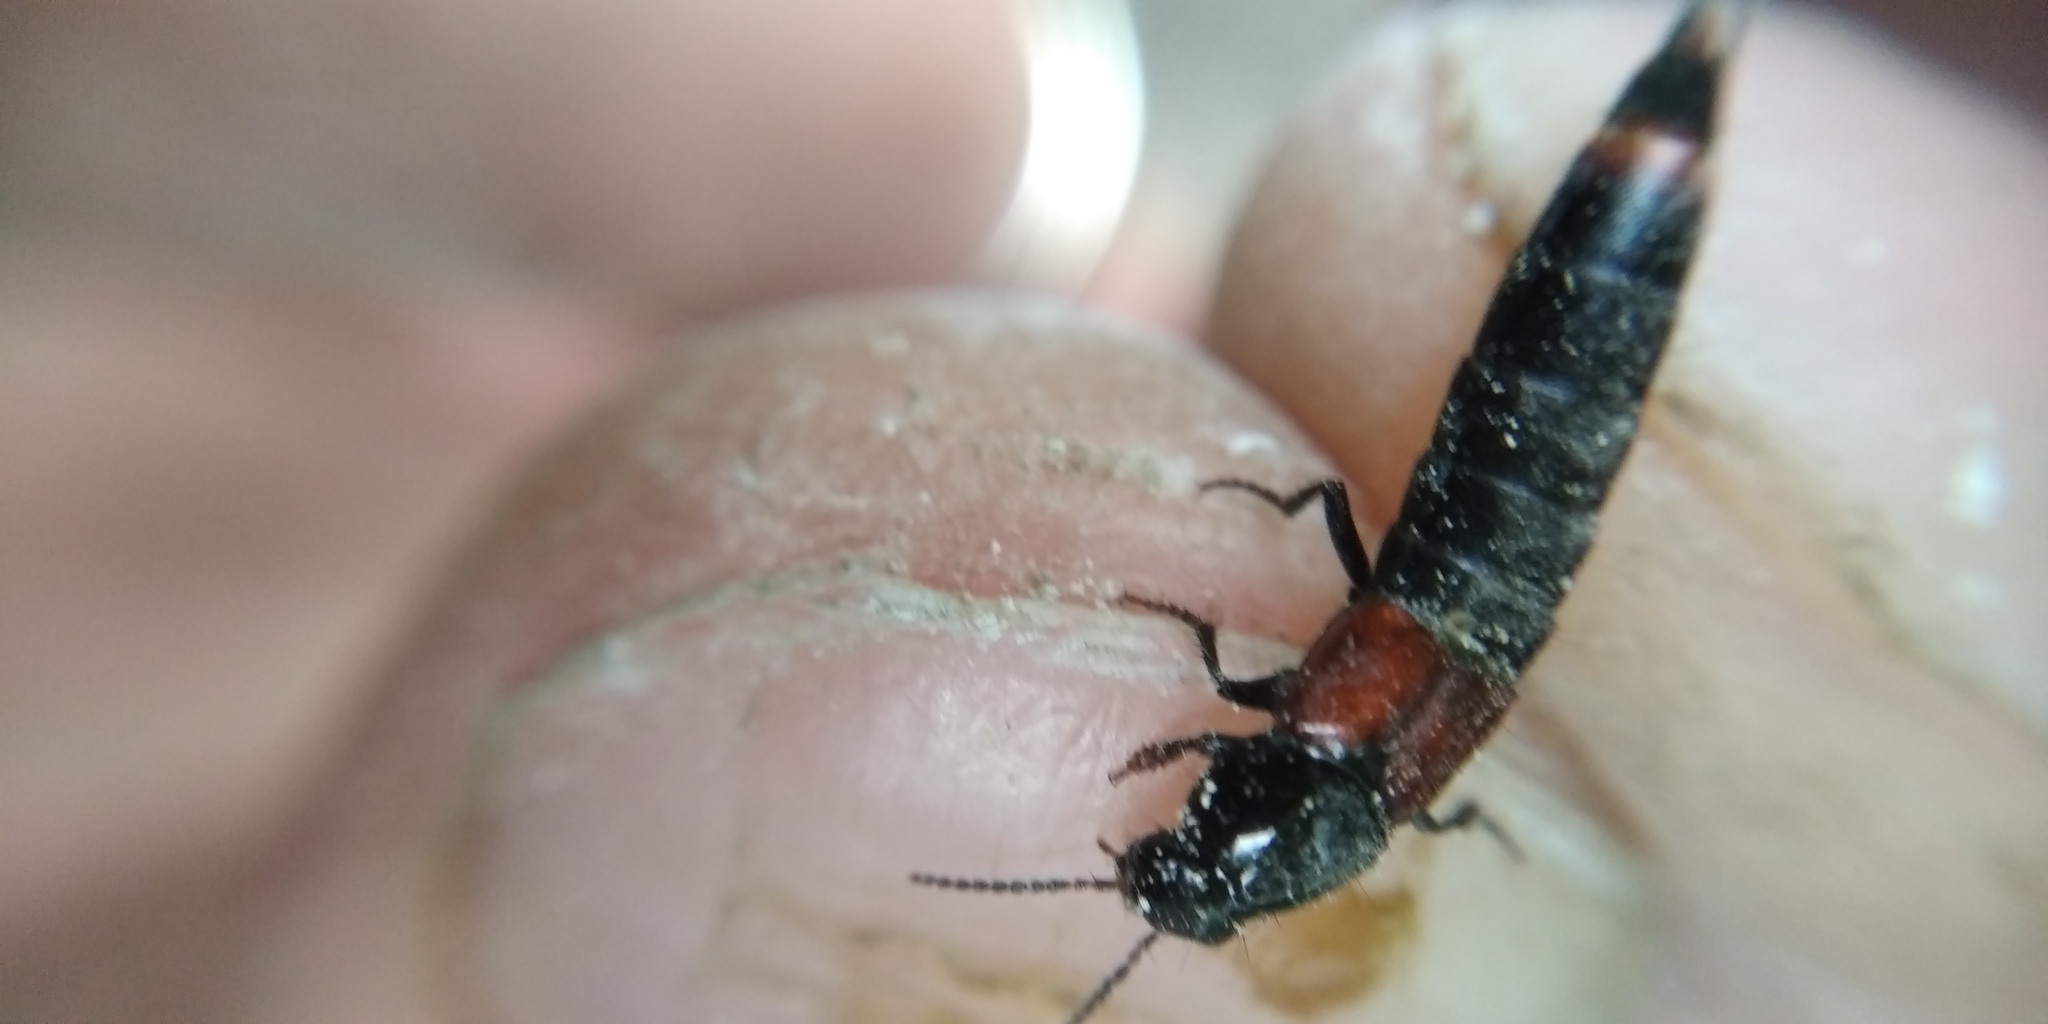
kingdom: Animalia
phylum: Arthropoda
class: Insecta
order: Coleoptera
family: Staphylinidae
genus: Astrapaeus
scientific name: Astrapaeus ulmi
